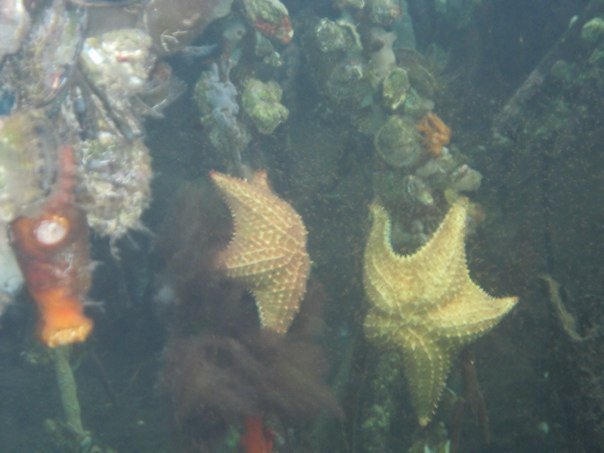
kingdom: Animalia
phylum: Echinodermata
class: Asteroidea
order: Valvatida
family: Oreasteridae
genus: Oreaster
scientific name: Oreaster reticulatus
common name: Cushion sea star
